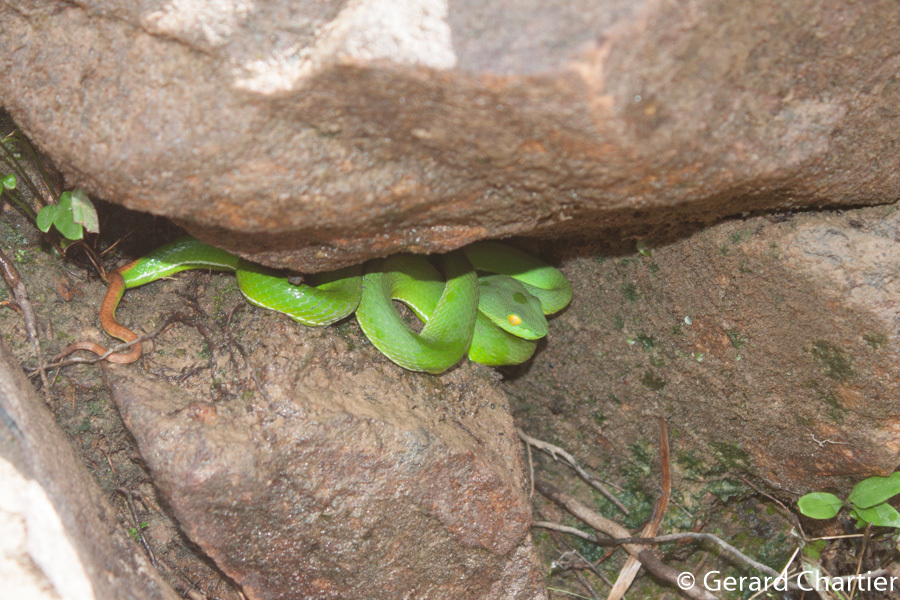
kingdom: Animalia
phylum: Chordata
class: Squamata
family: Viperidae
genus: Trimeresurus
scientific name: Trimeresurus cardamomensis
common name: Cardamom mountains green pitviper
